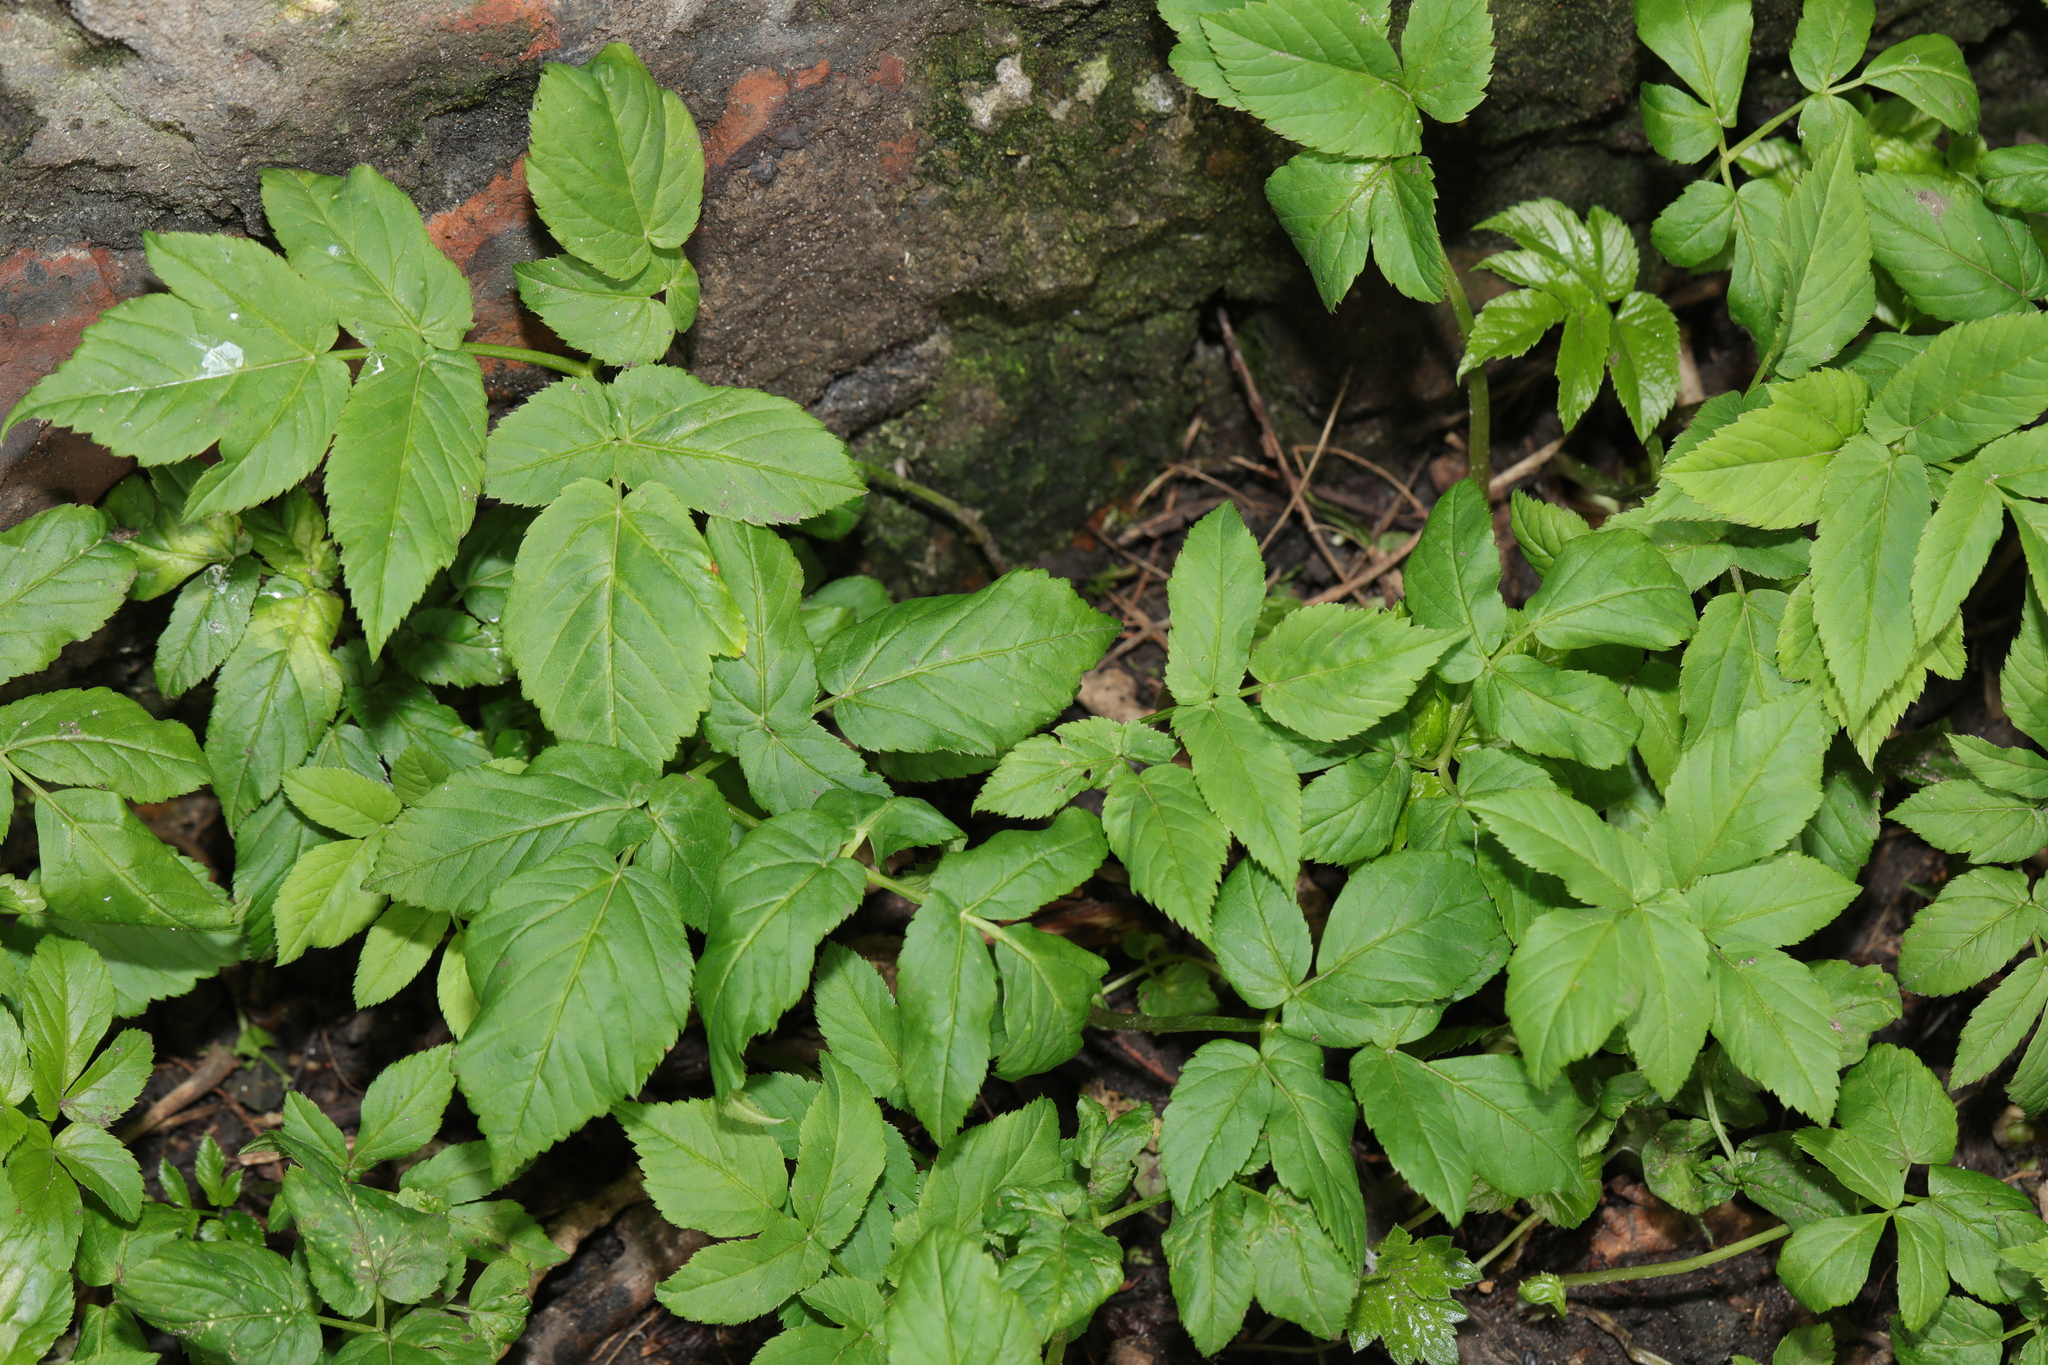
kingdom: Plantae
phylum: Tracheophyta
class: Magnoliopsida
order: Apiales
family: Apiaceae
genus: Aegopodium
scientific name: Aegopodium podagraria
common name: Ground-elder
